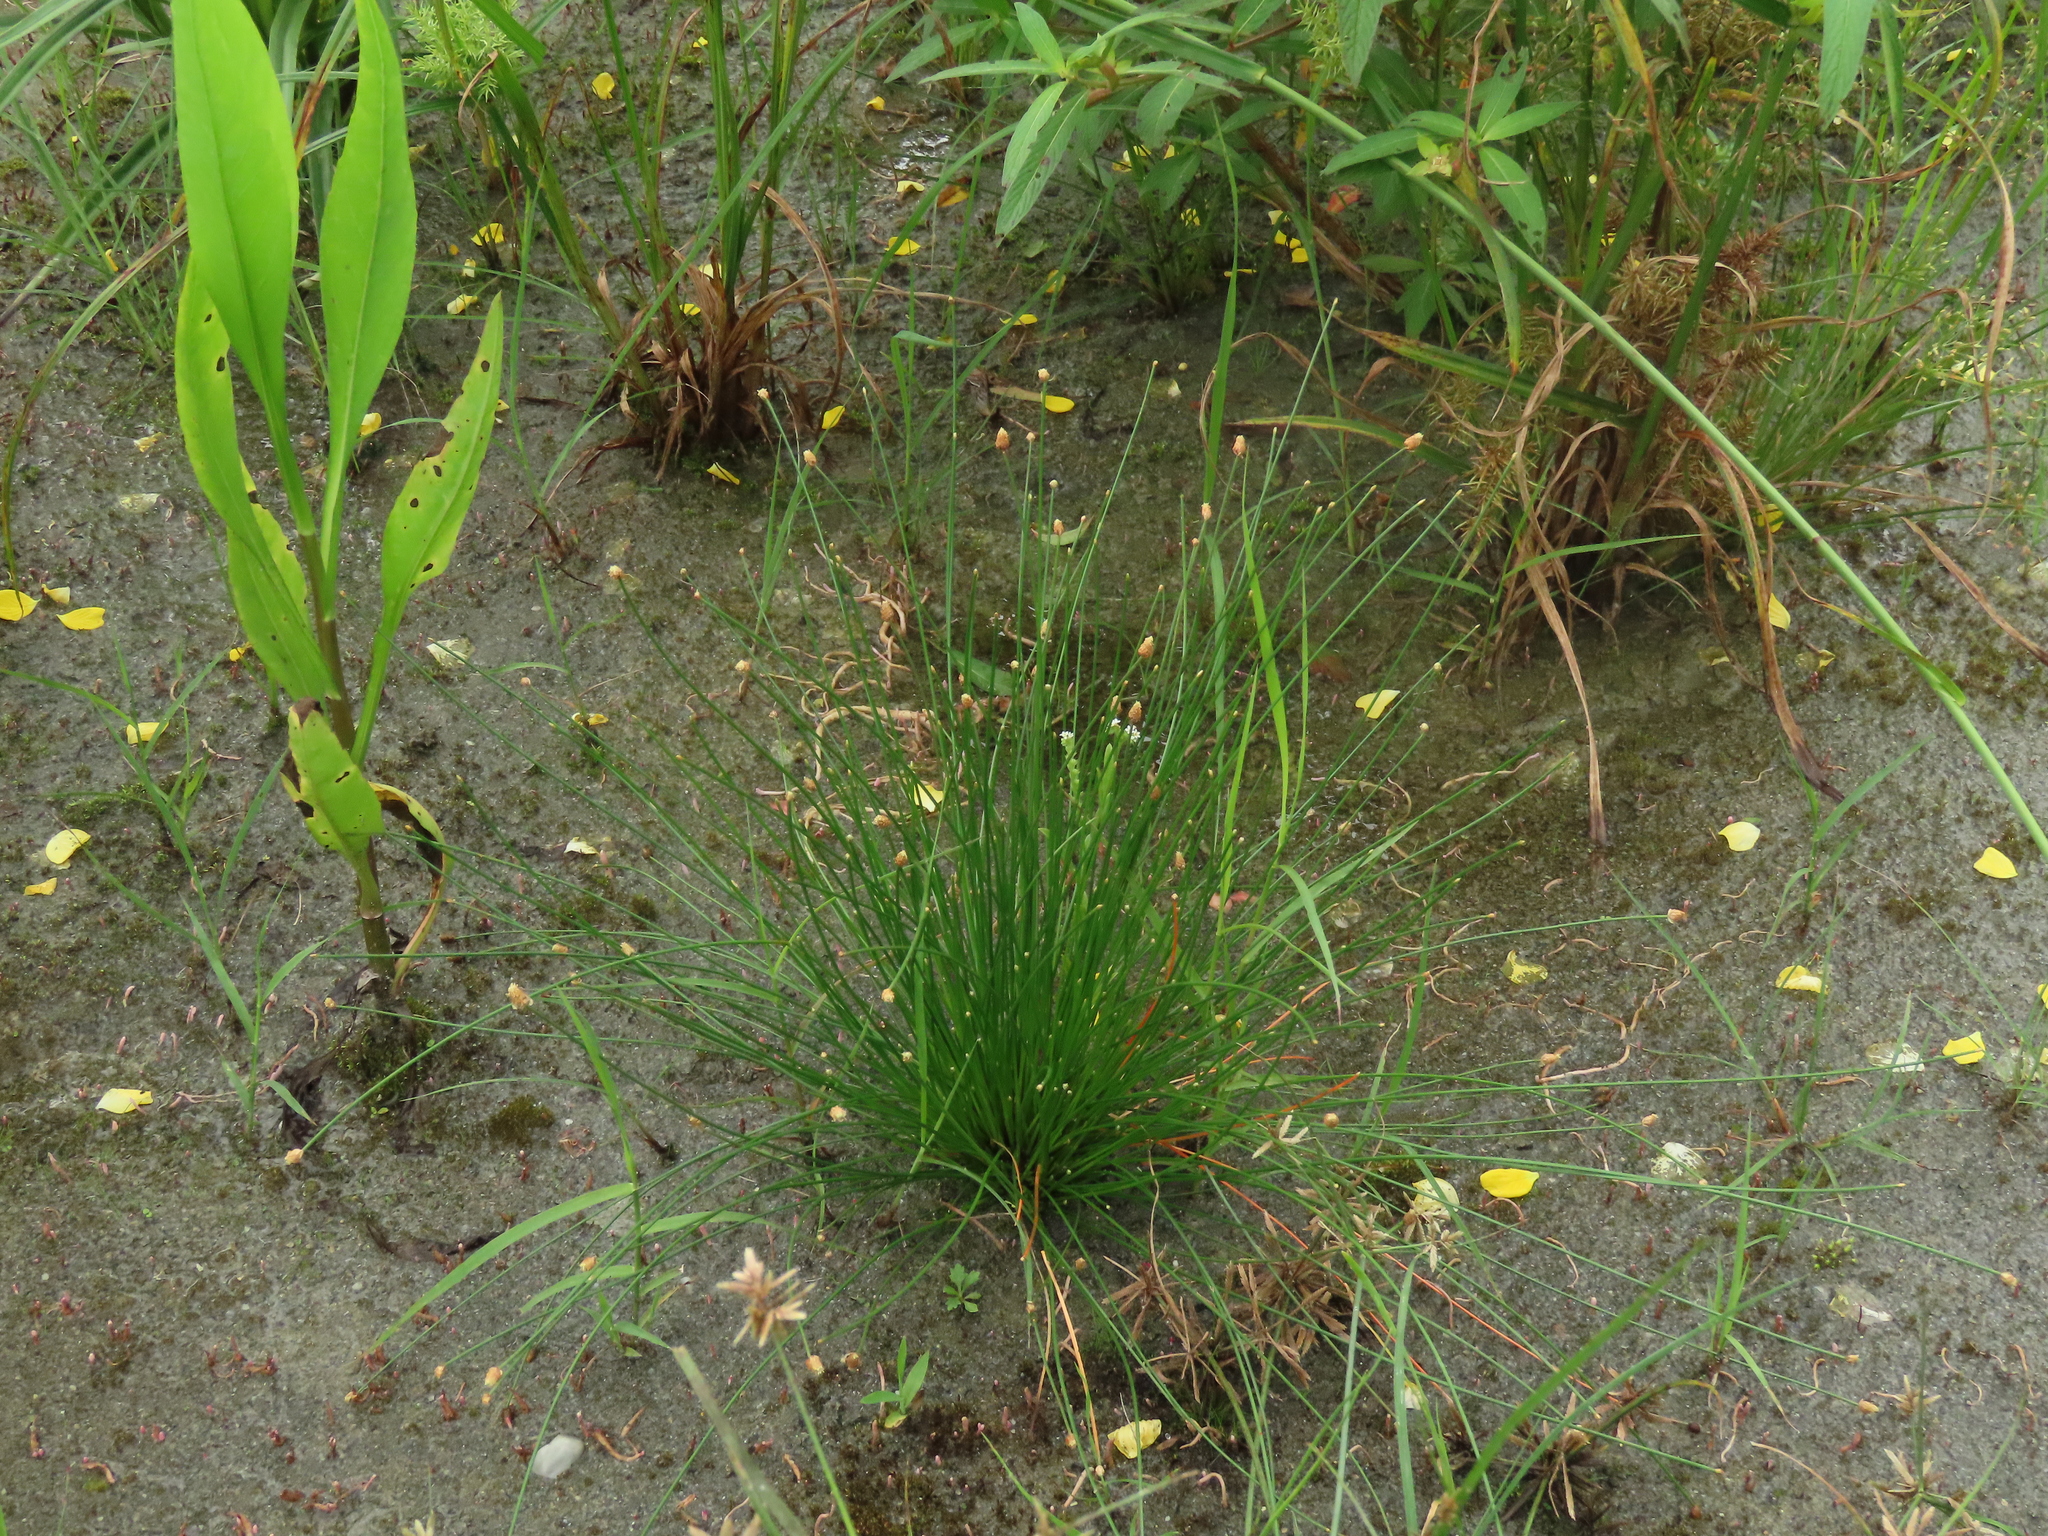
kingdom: Plantae
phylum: Tracheophyta
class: Liliopsida
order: Poales
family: Cyperaceae
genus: Eleocharis
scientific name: Eleocharis geniculata
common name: Canada spikesedge
